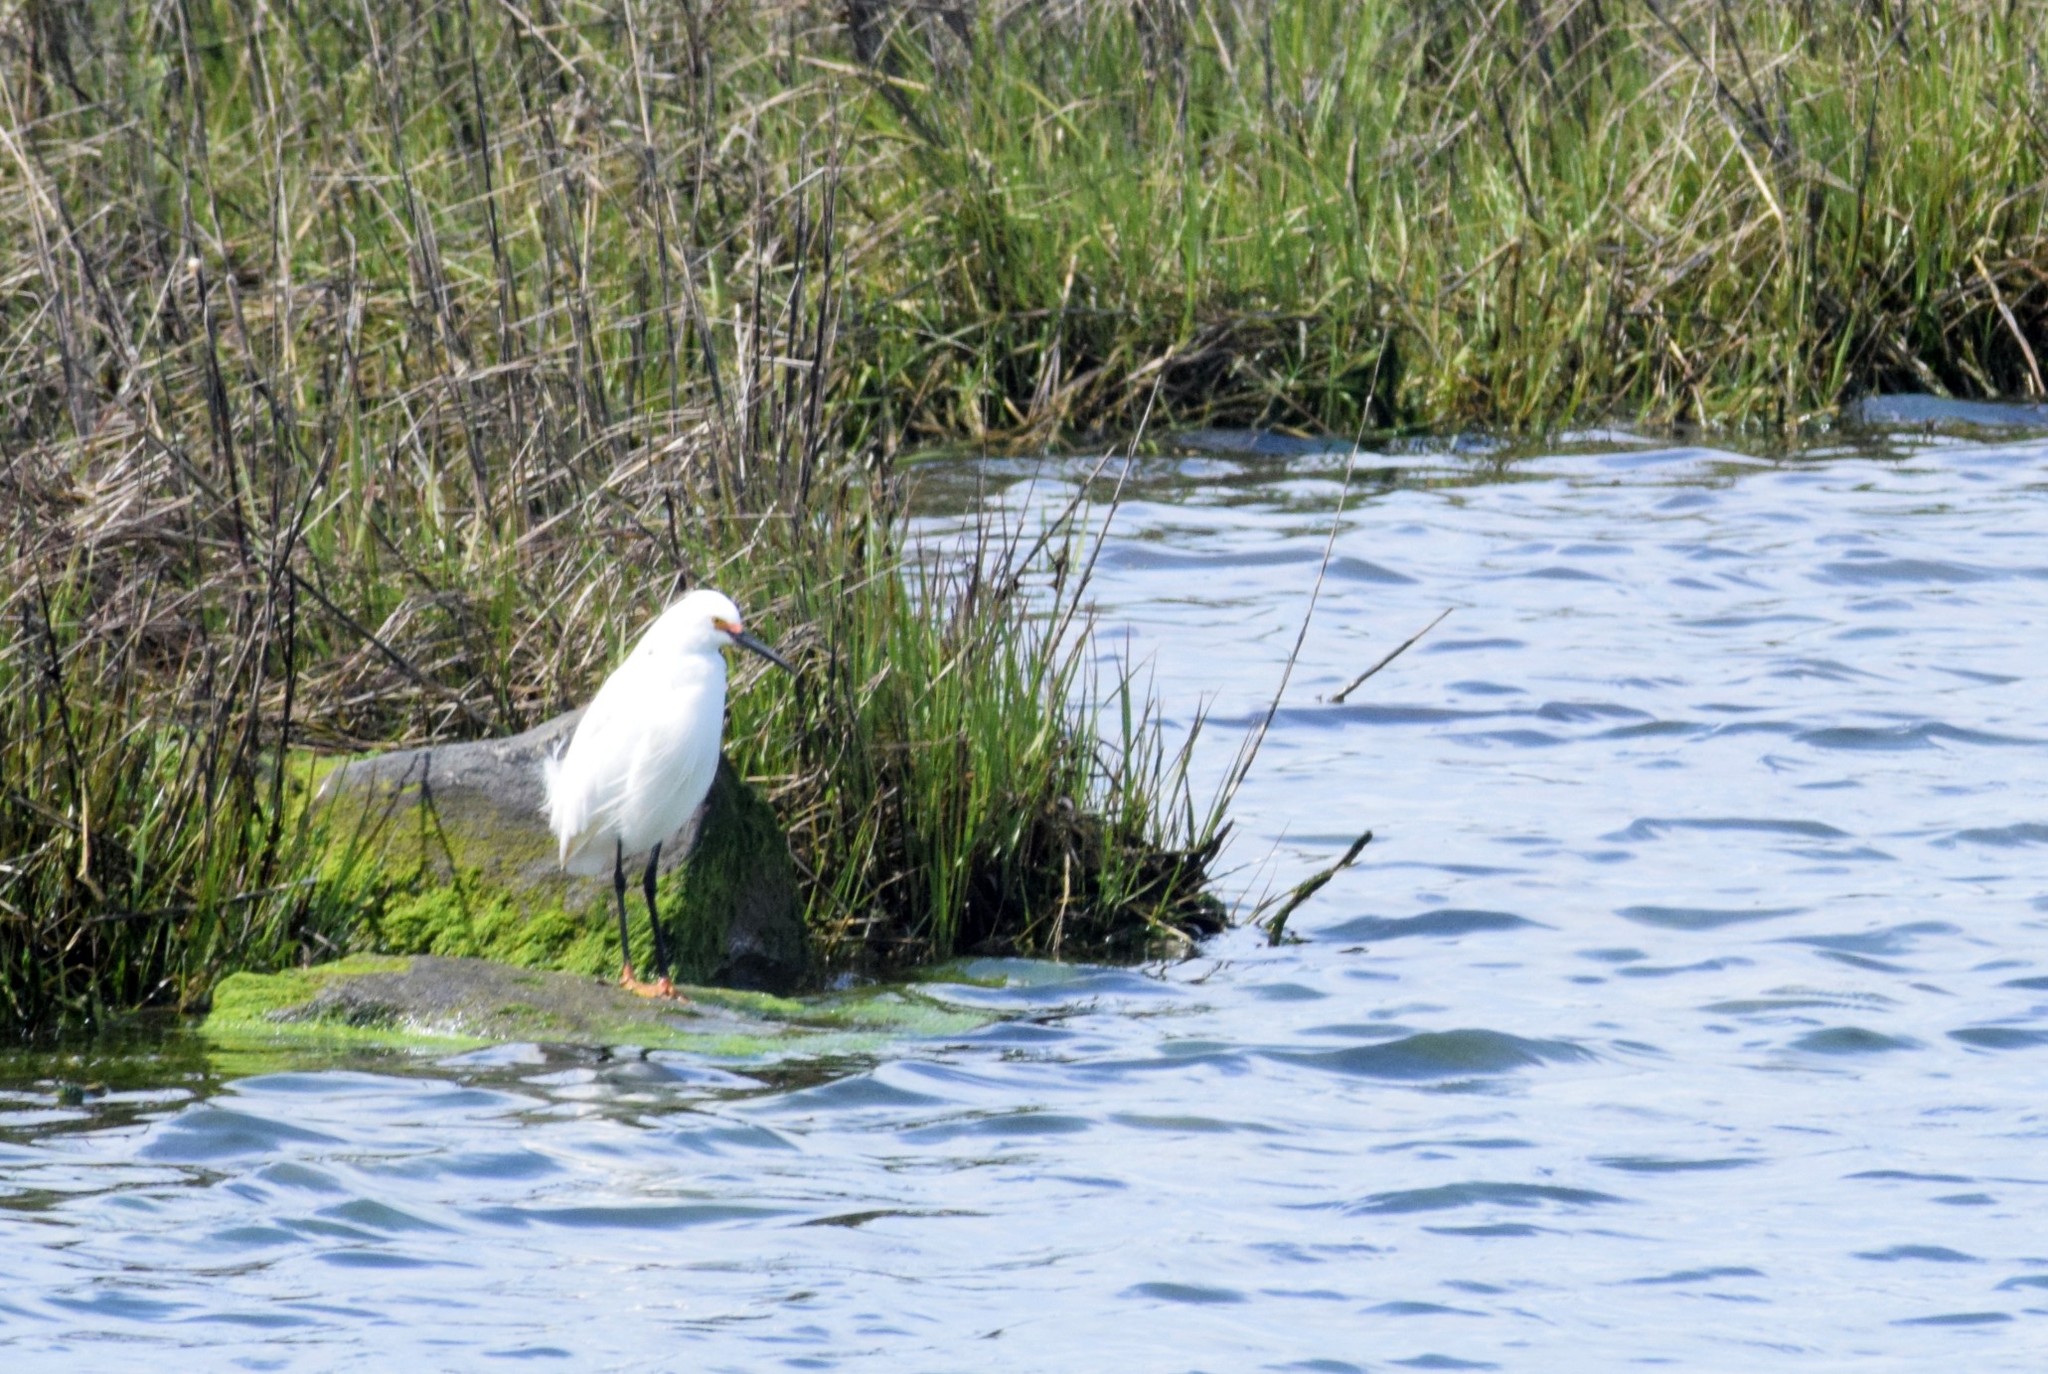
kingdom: Animalia
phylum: Chordata
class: Aves
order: Pelecaniformes
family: Ardeidae
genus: Egretta
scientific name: Egretta thula
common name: Snowy egret
